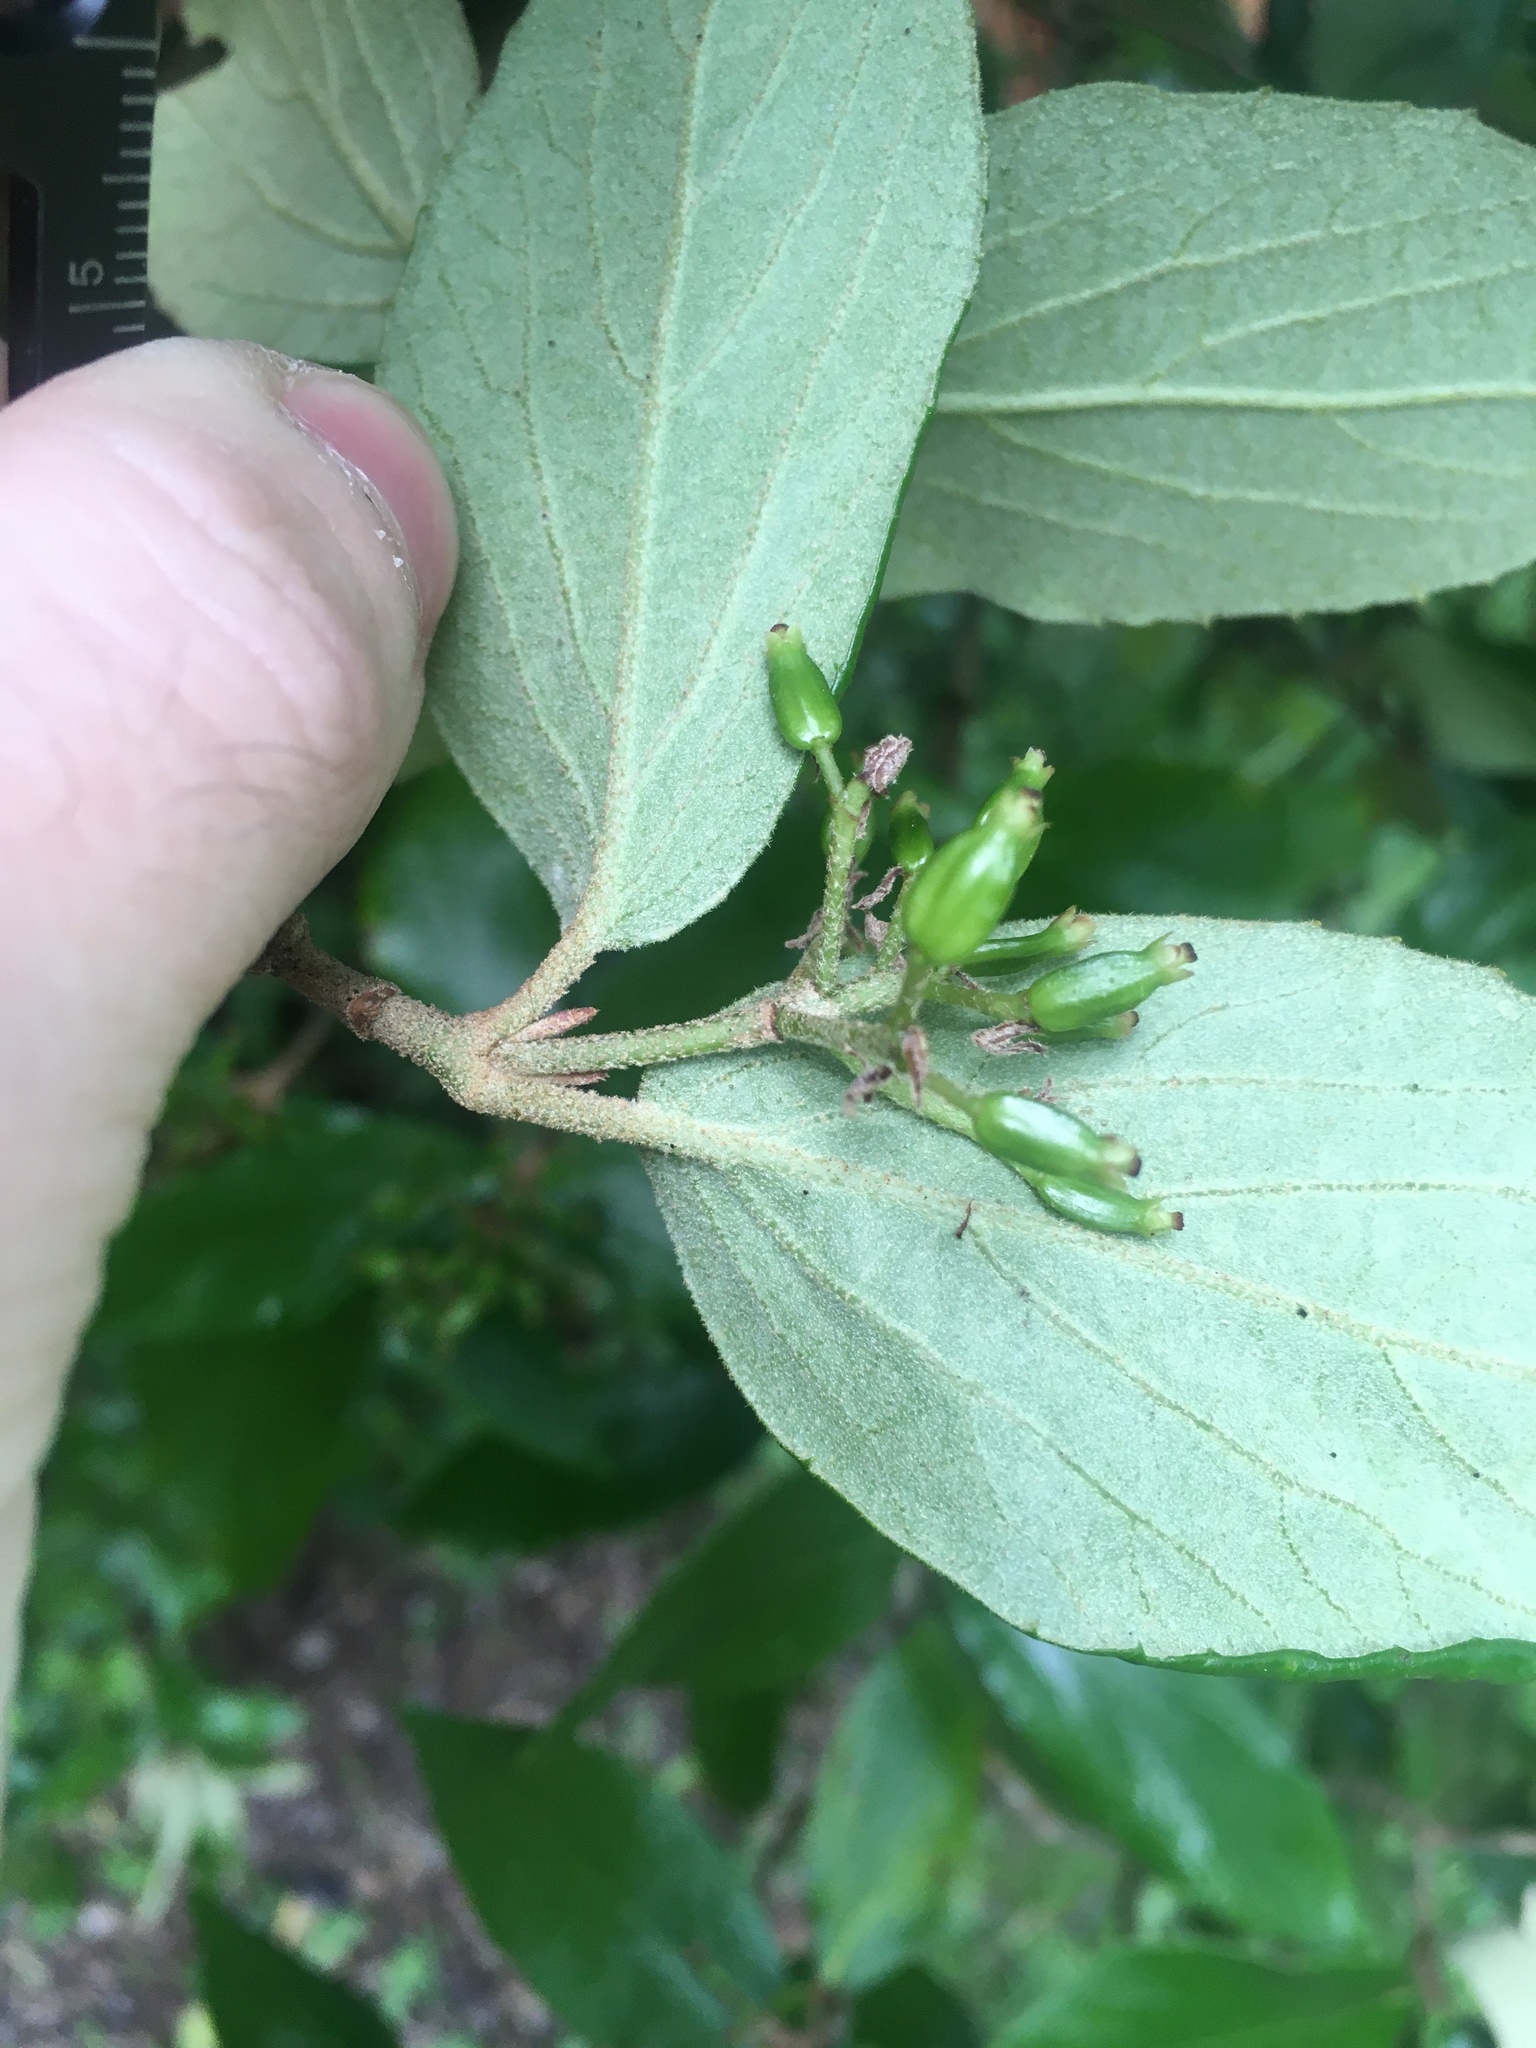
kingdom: Plantae
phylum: Tracheophyta
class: Magnoliopsida
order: Dipsacales
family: Viburnaceae
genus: Viburnum
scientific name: Viburnum burkwoodii
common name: Burkwood's viburnum
